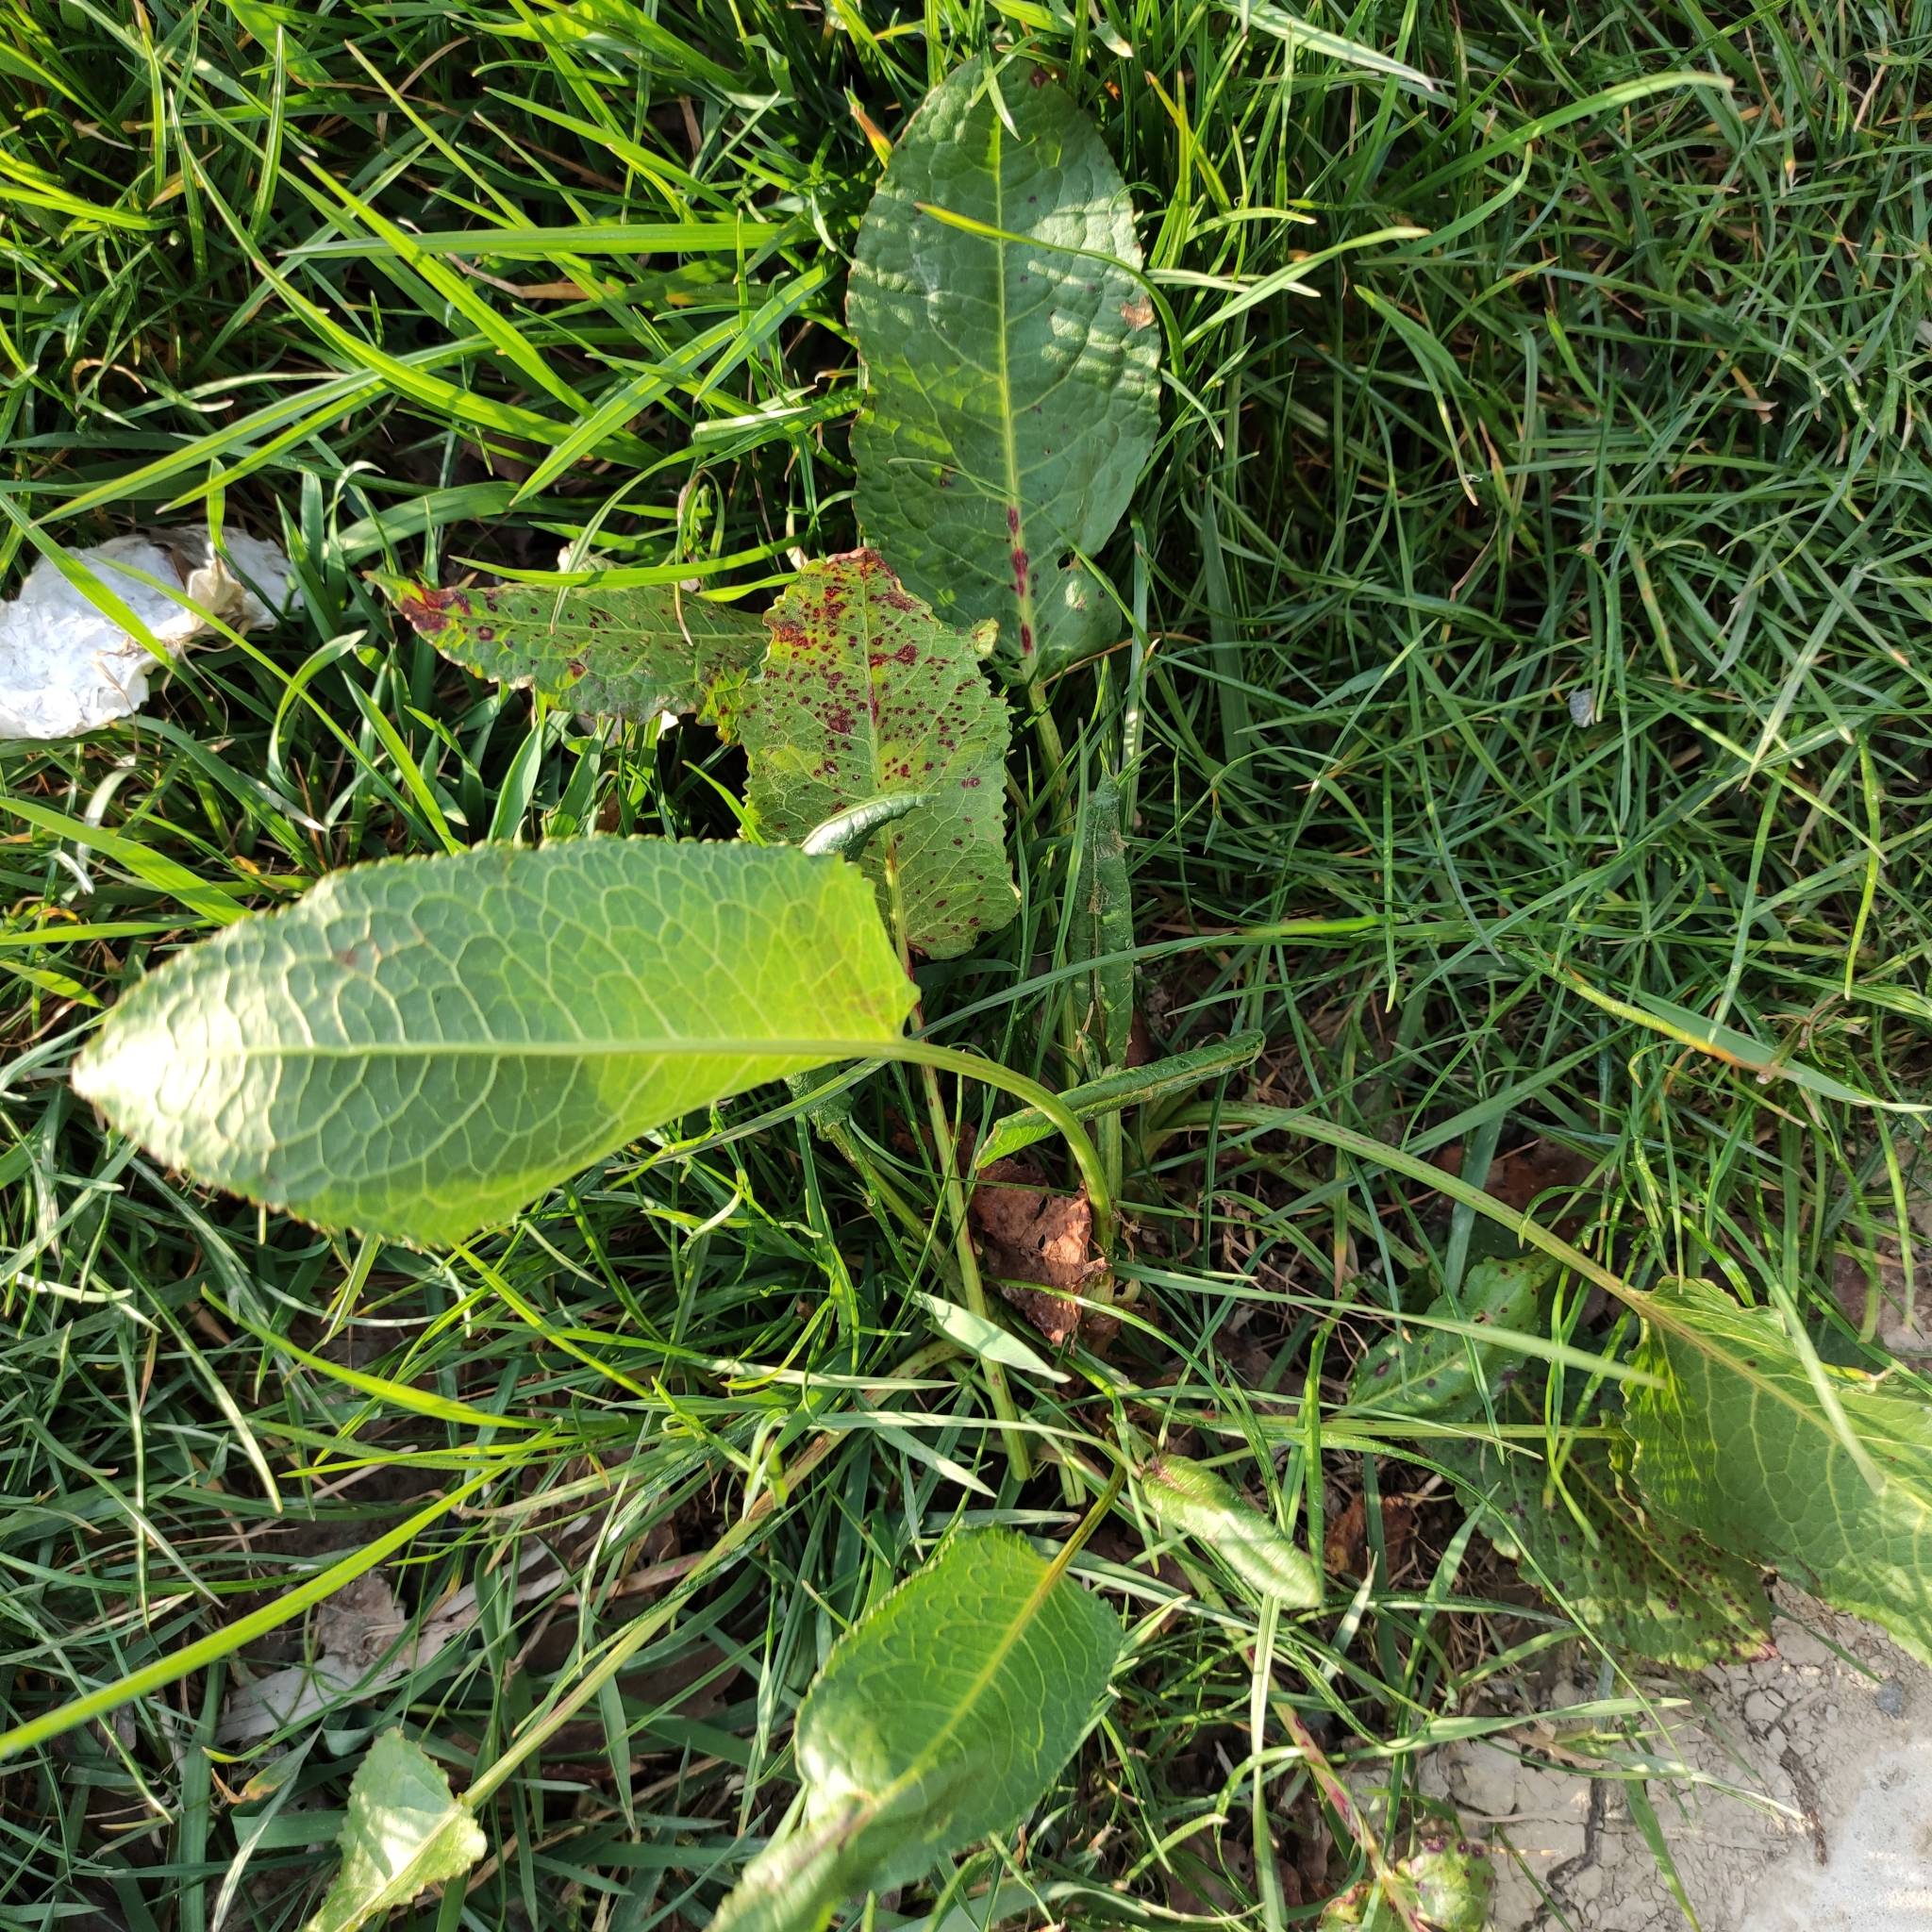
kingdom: Plantae
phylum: Tracheophyta
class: Magnoliopsida
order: Caryophyllales
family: Polygonaceae
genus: Rumex
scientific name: Rumex obtusifolius
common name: Bitter dock
